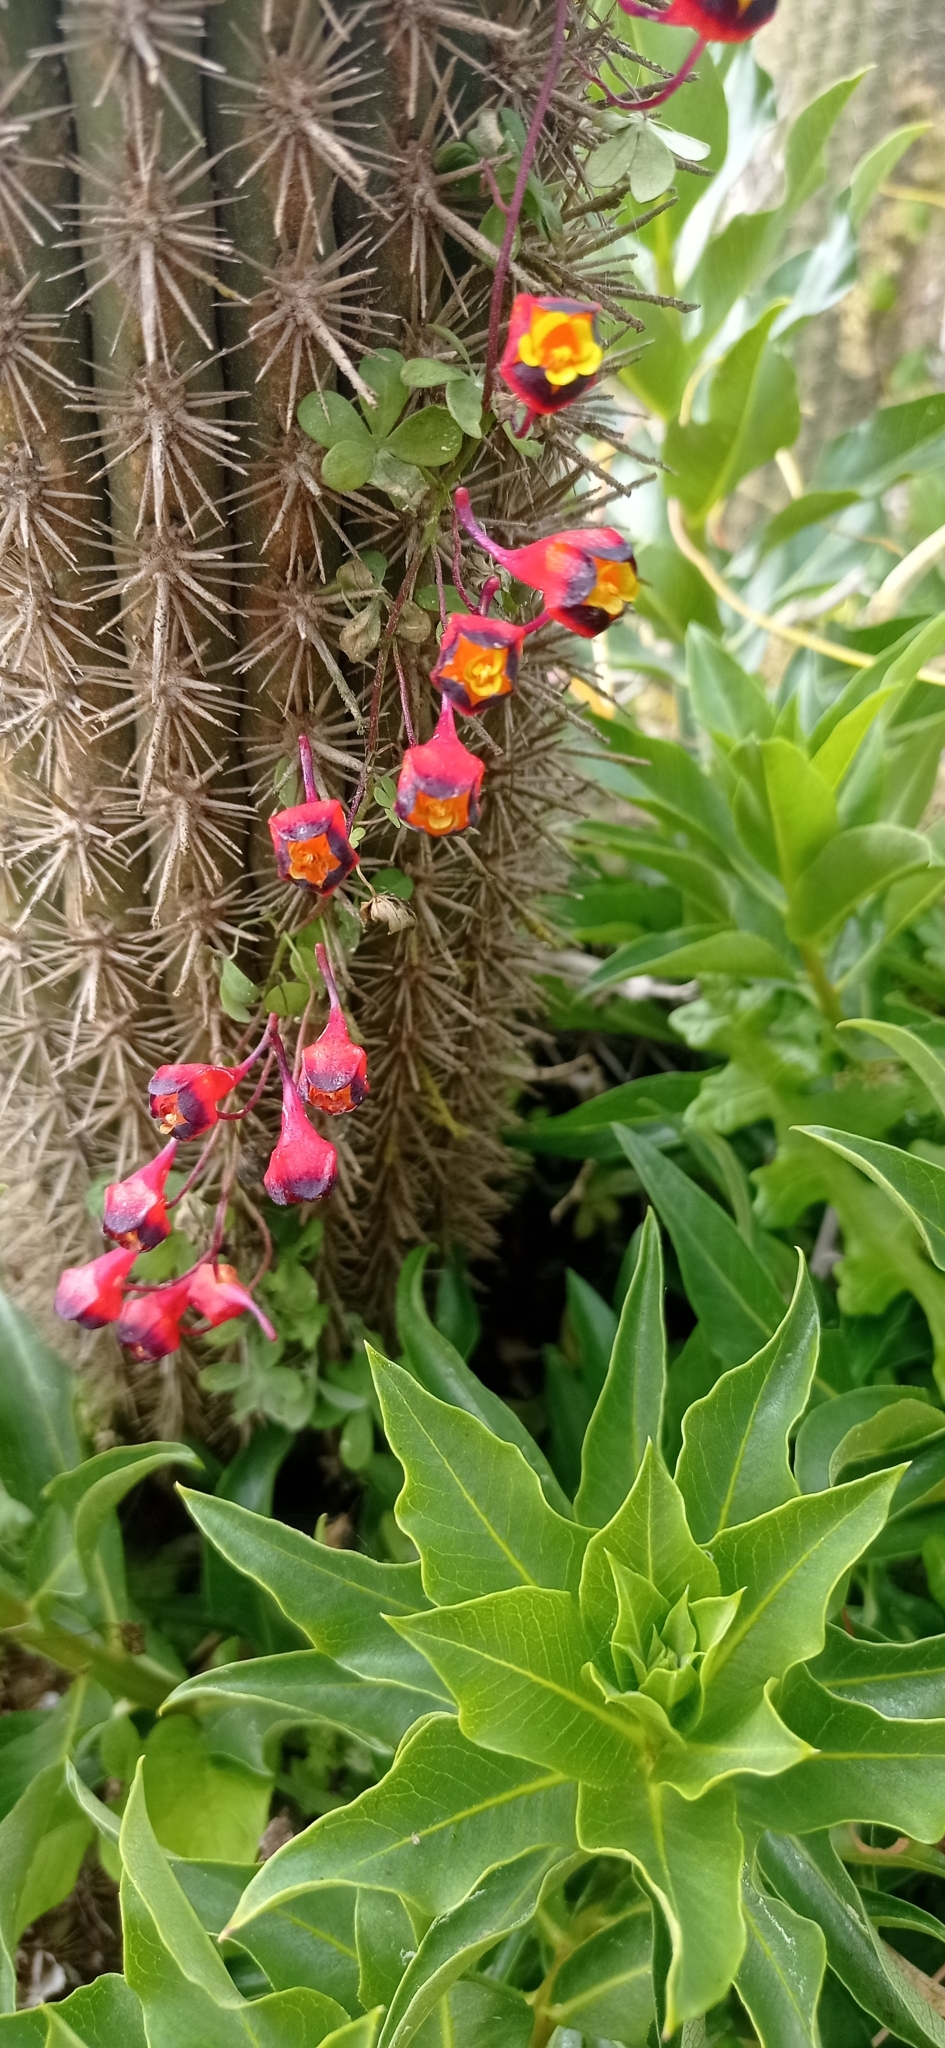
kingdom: Plantae
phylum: Tracheophyta
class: Magnoliopsida
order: Brassicales
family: Tropaeolaceae
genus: Tropaeolum
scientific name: Tropaeolum tricolor
